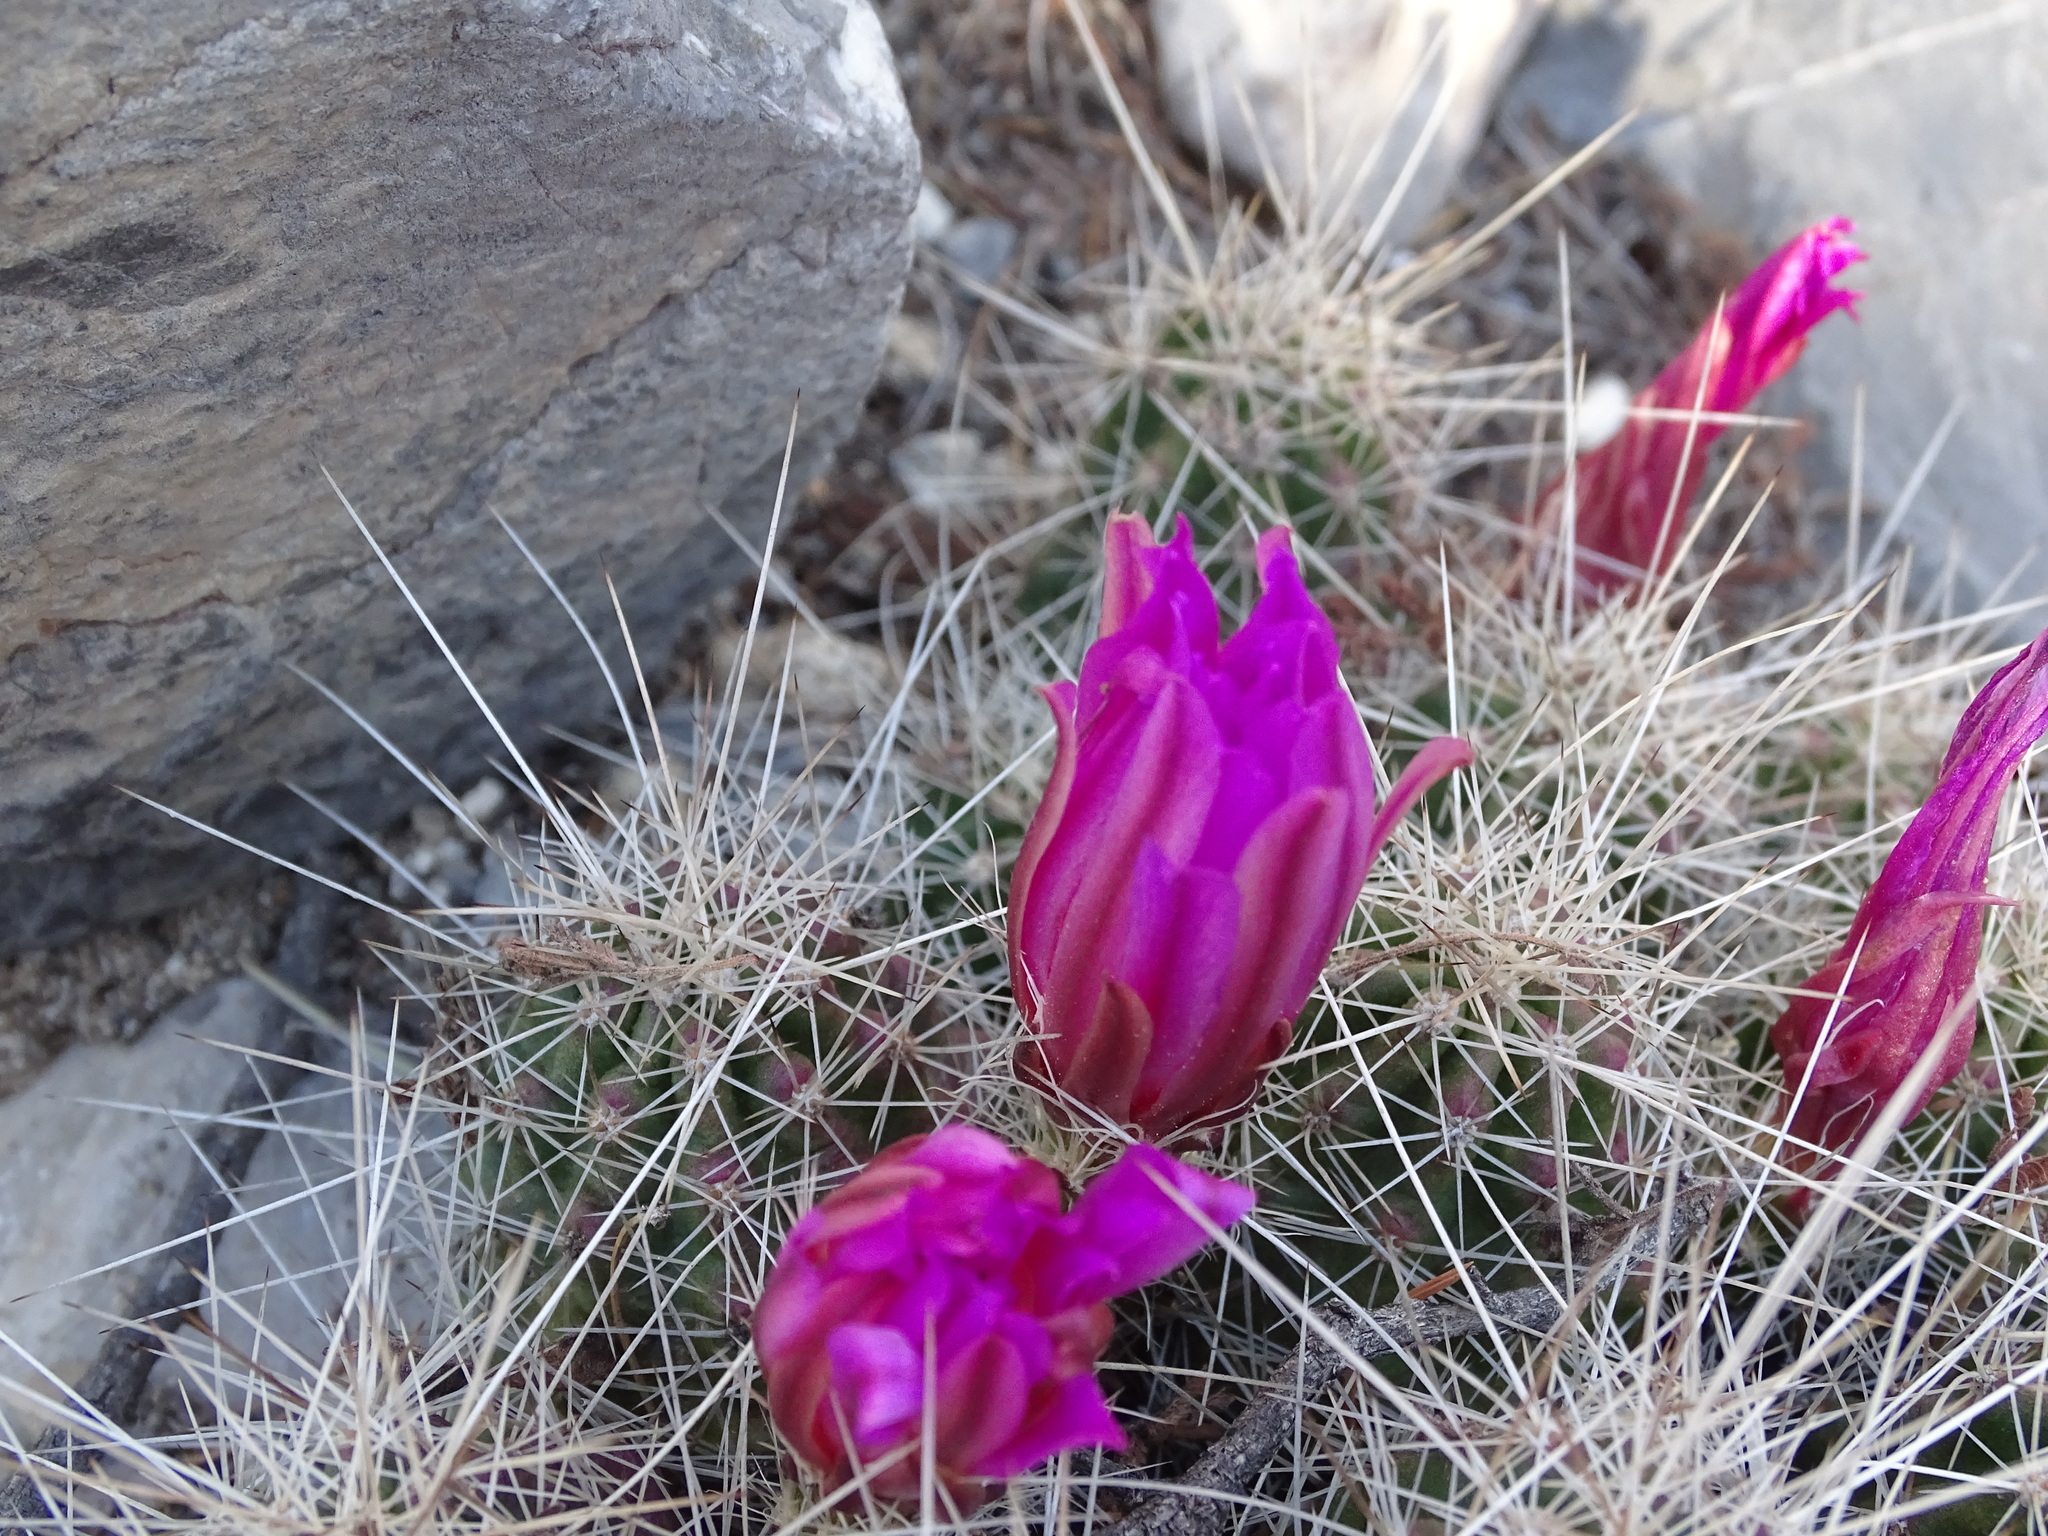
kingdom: Plantae
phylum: Tracheophyta
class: Magnoliopsida
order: Caryophyllales
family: Cactaceae
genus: Echinocereus
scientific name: Echinocereus parkeri
